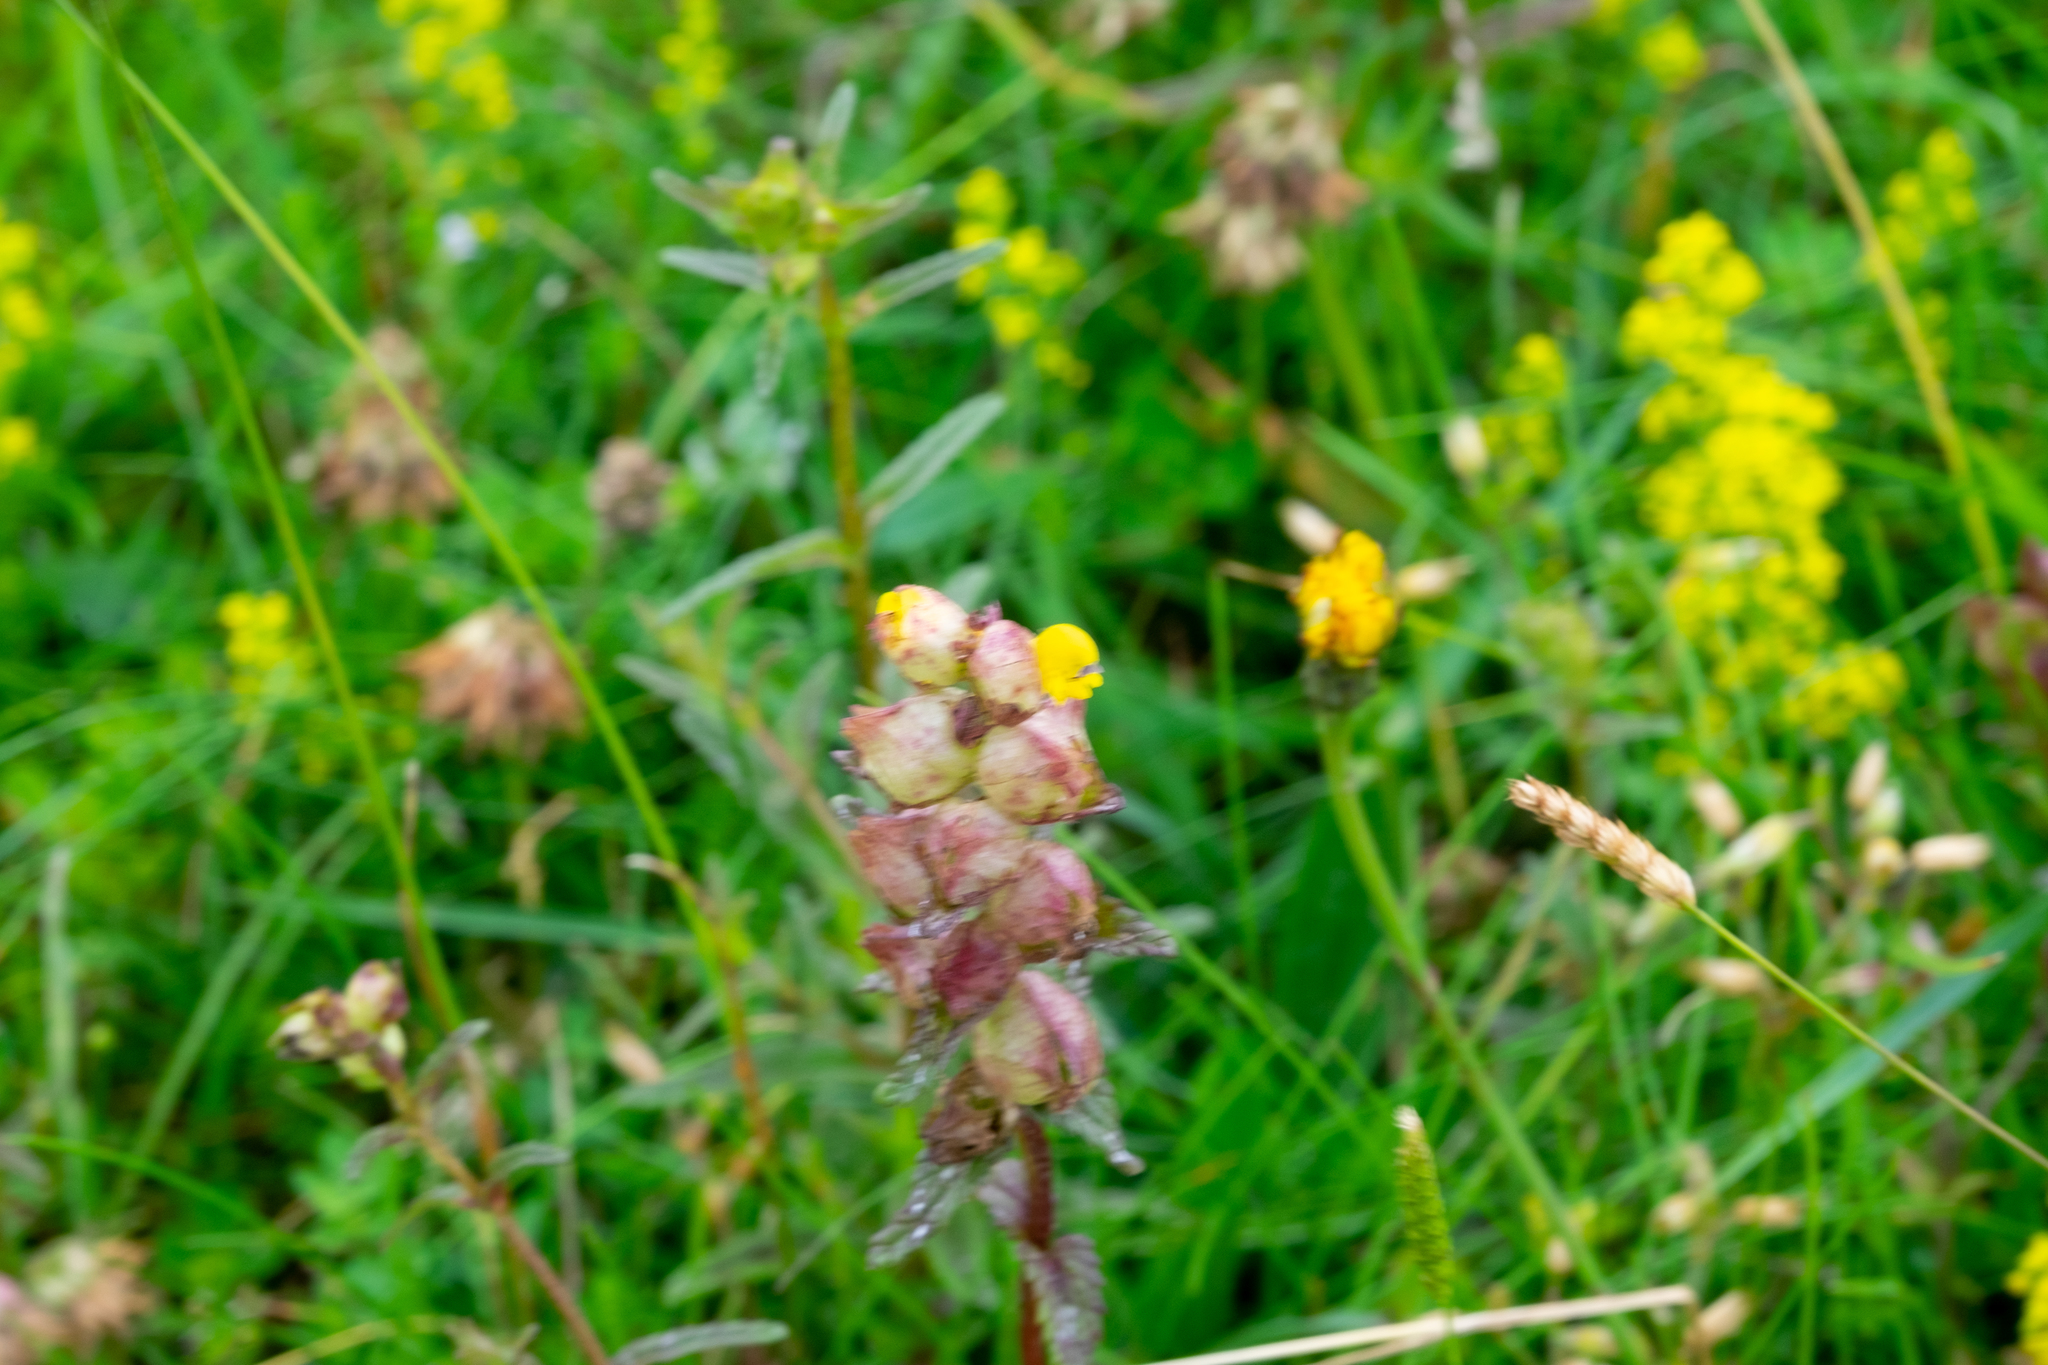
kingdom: Plantae
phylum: Tracheophyta
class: Magnoliopsida
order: Lamiales
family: Orobanchaceae
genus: Rhinanthus
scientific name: Rhinanthus minor
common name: Yellow-rattle
